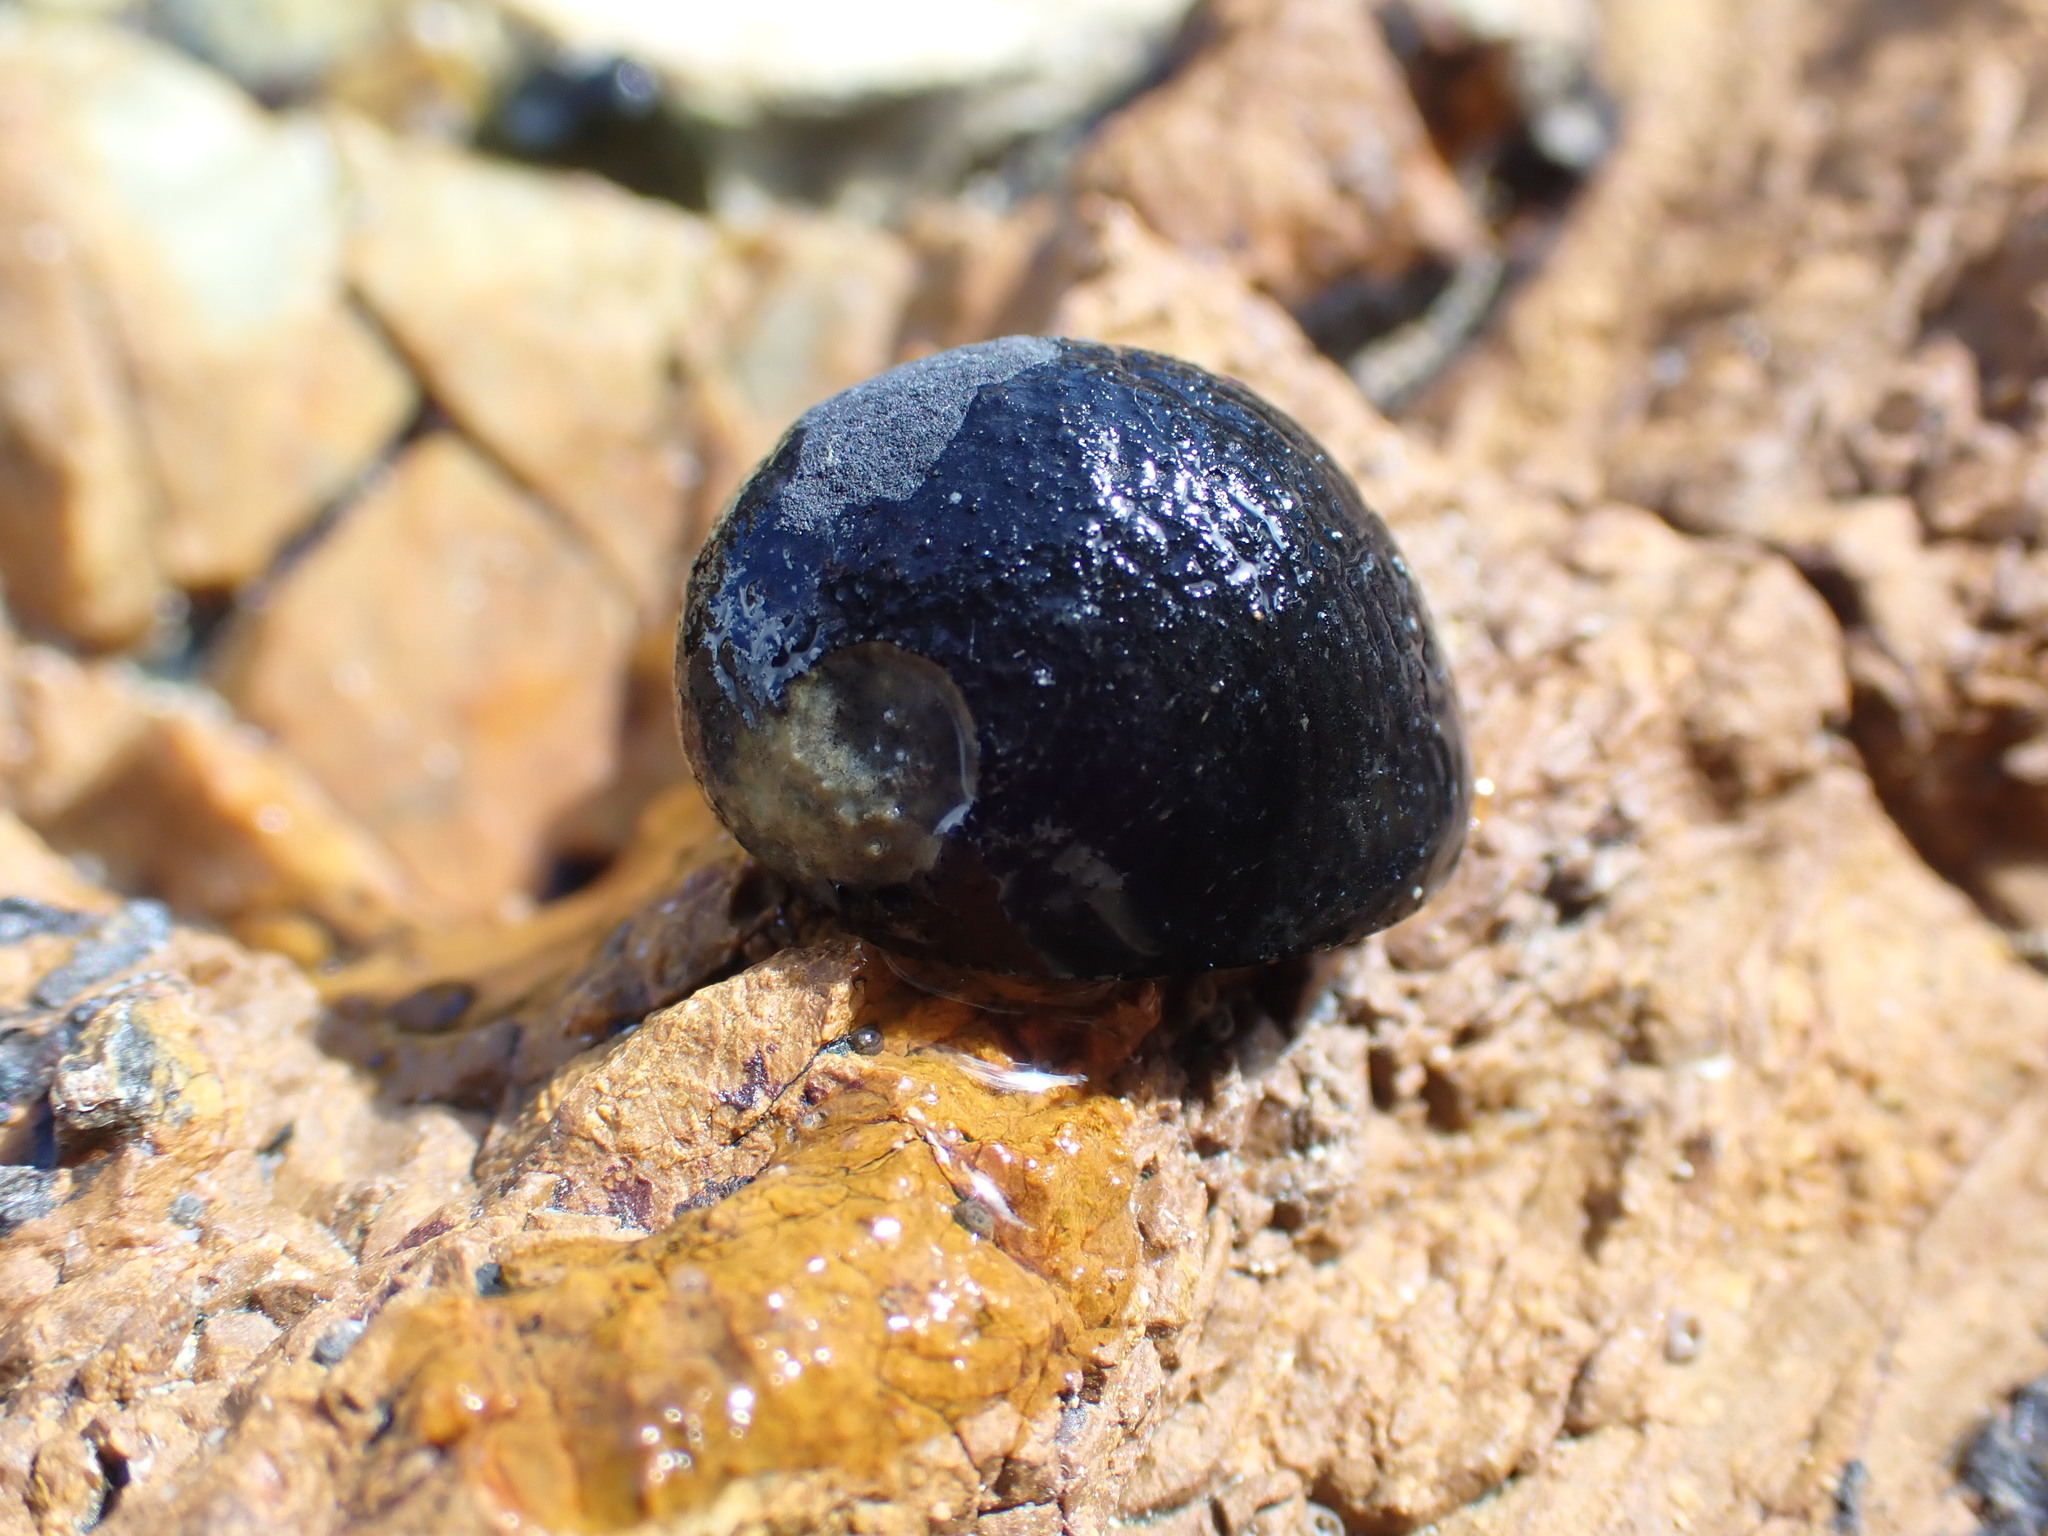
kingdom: Animalia
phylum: Mollusca
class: Gastropoda
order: Cycloneritida
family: Neritidae
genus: Nerita
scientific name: Nerita melanotragus
